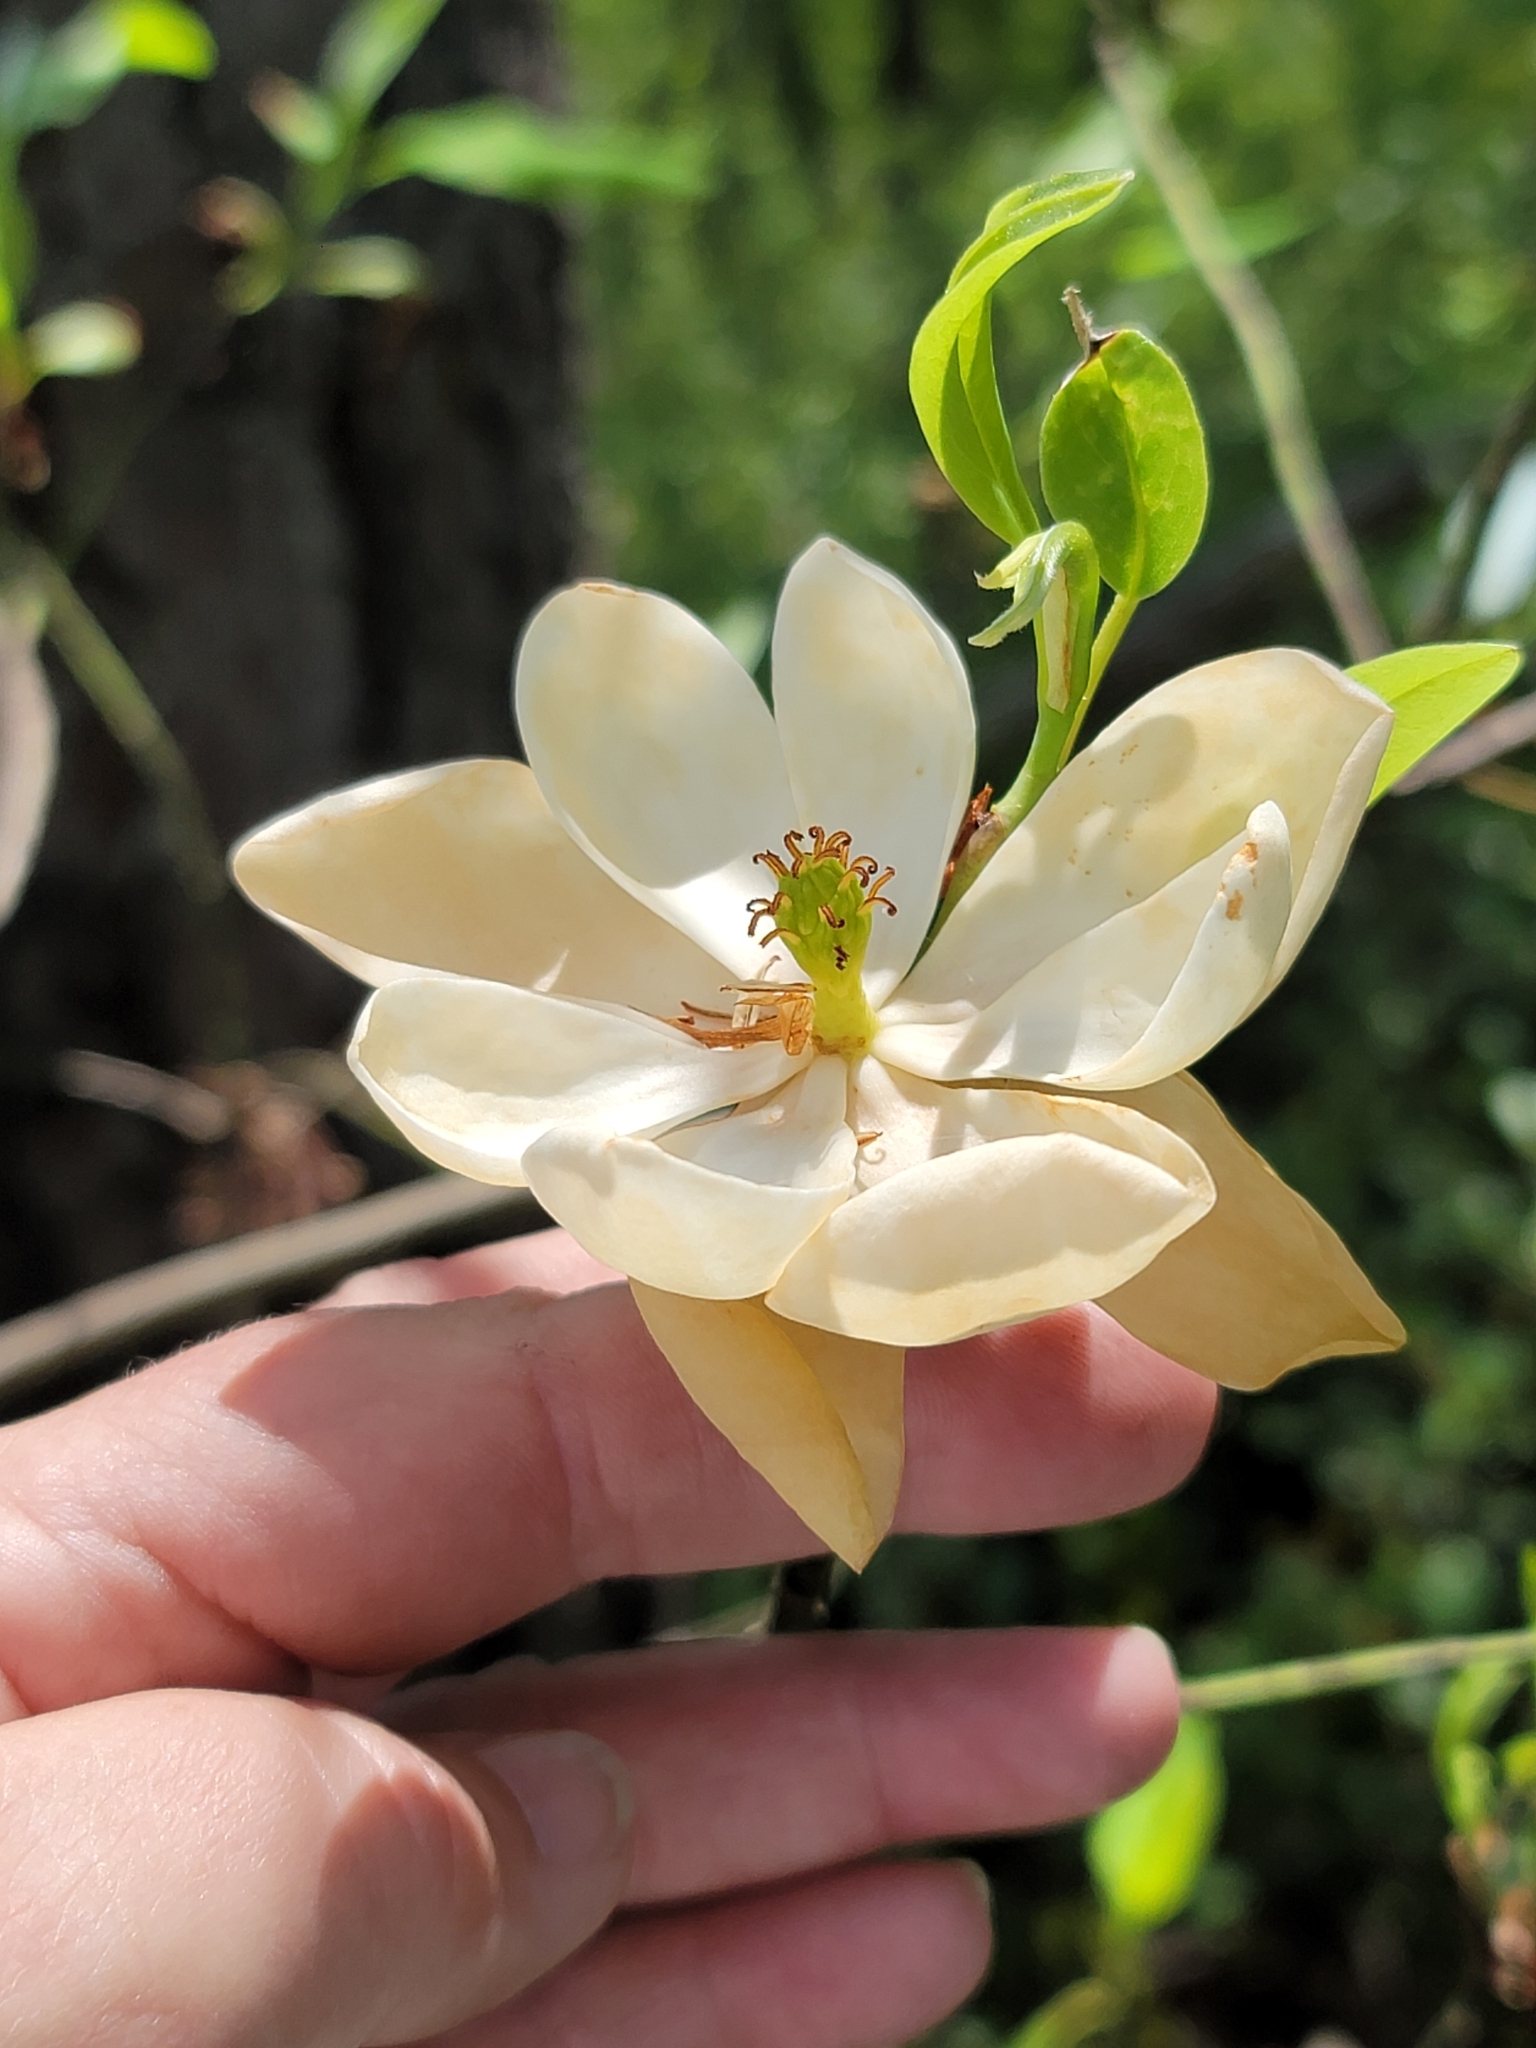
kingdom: Plantae
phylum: Tracheophyta
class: Magnoliopsida
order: Magnoliales
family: Magnoliaceae
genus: Magnolia
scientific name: Magnolia virginiana
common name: Swamp bay
